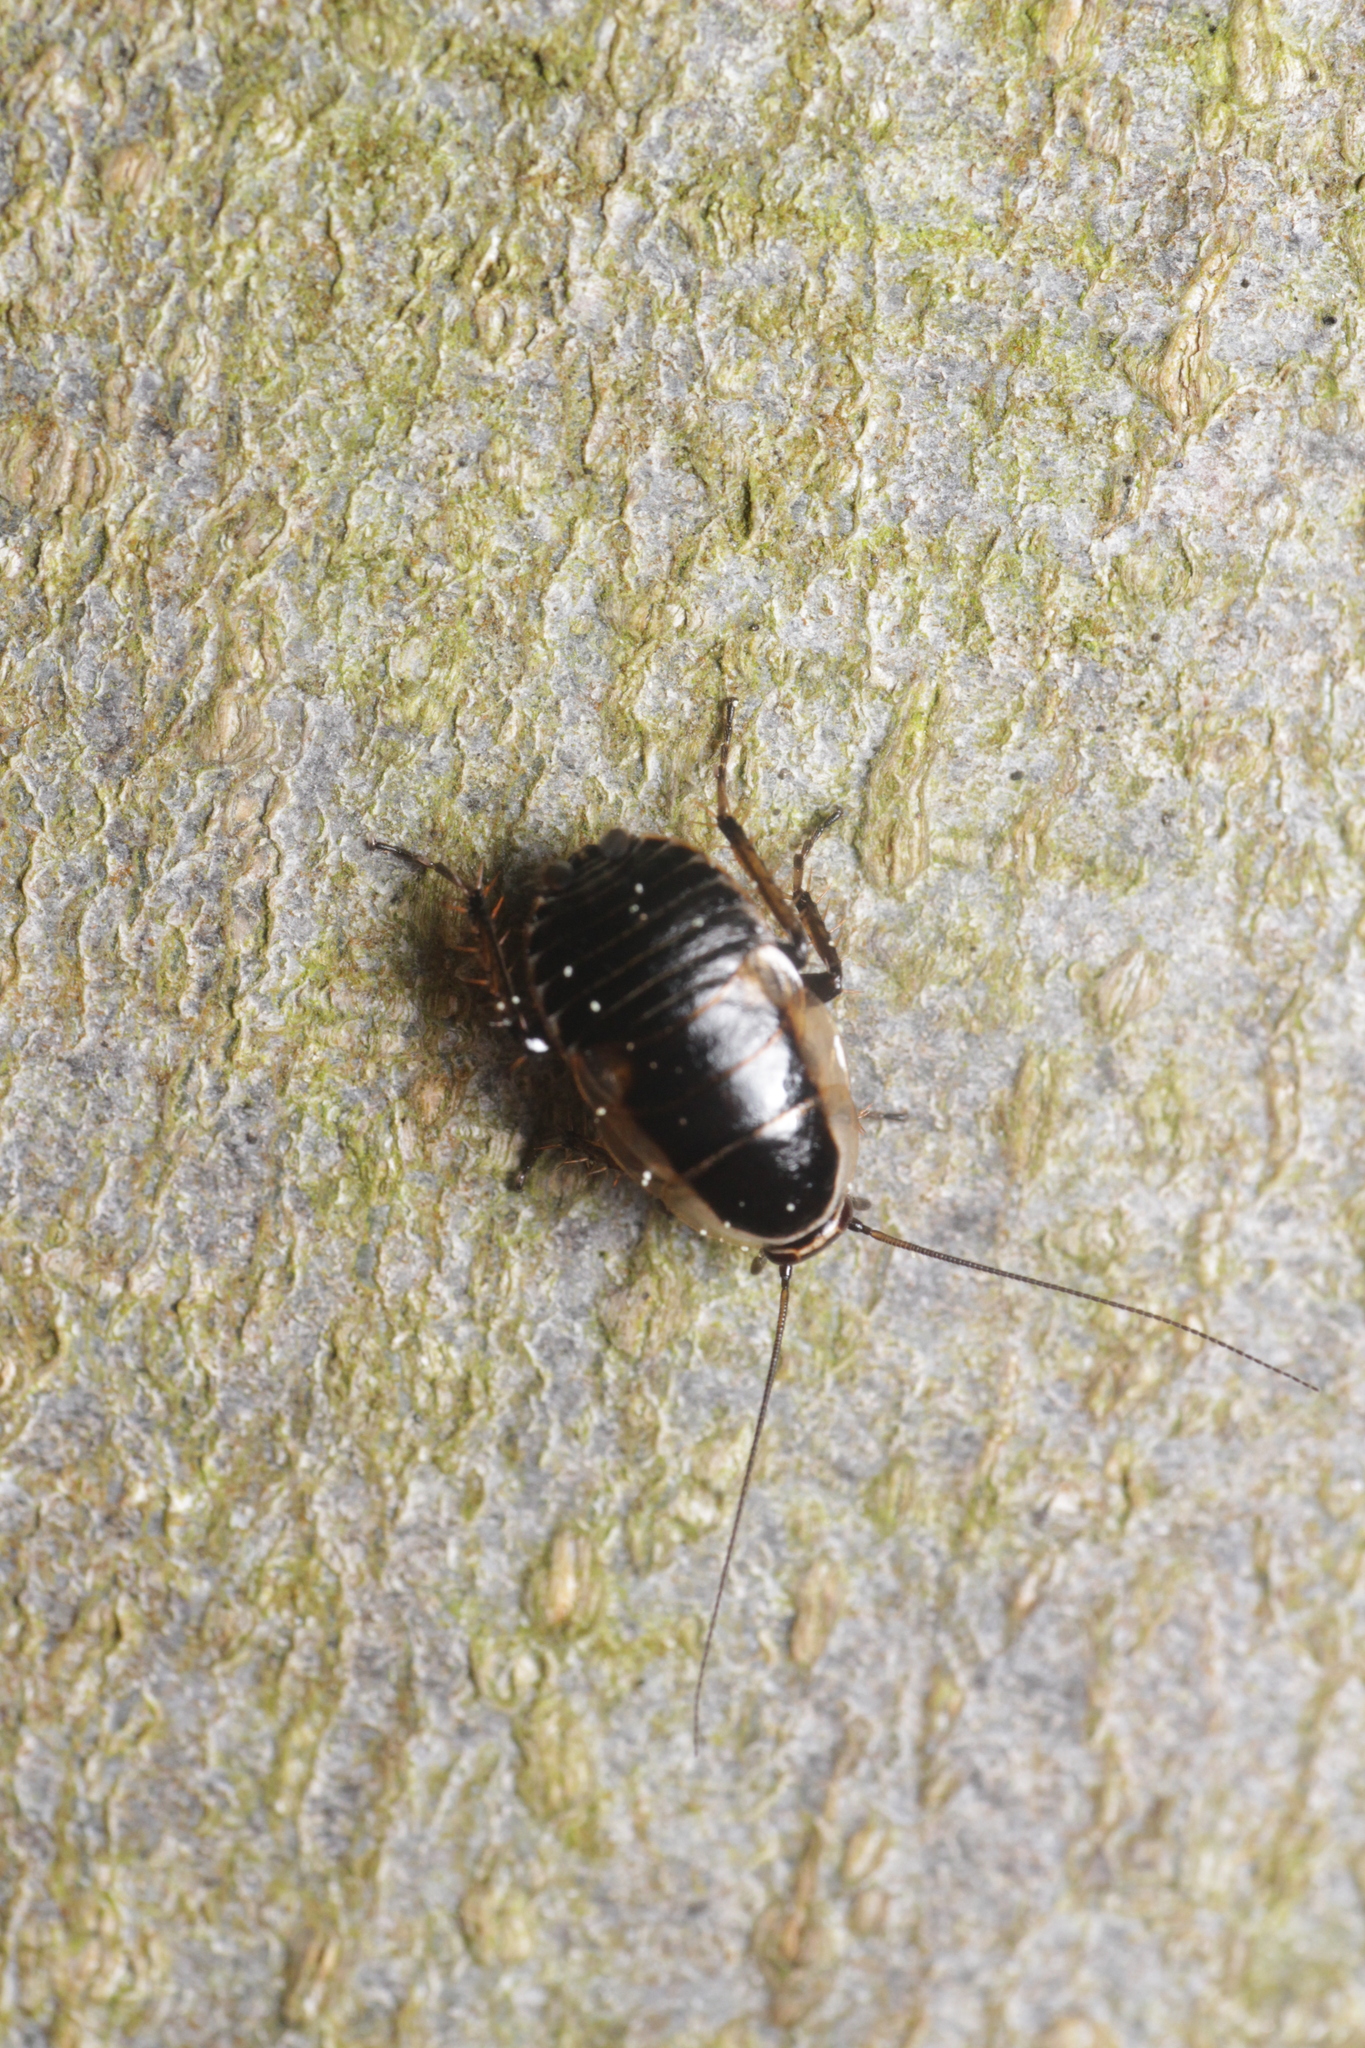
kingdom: Animalia
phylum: Arthropoda
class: Insecta
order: Blattodea
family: Ectobiidae
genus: Ectobius
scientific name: Ectobius sylvestris
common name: Forest cockroach
